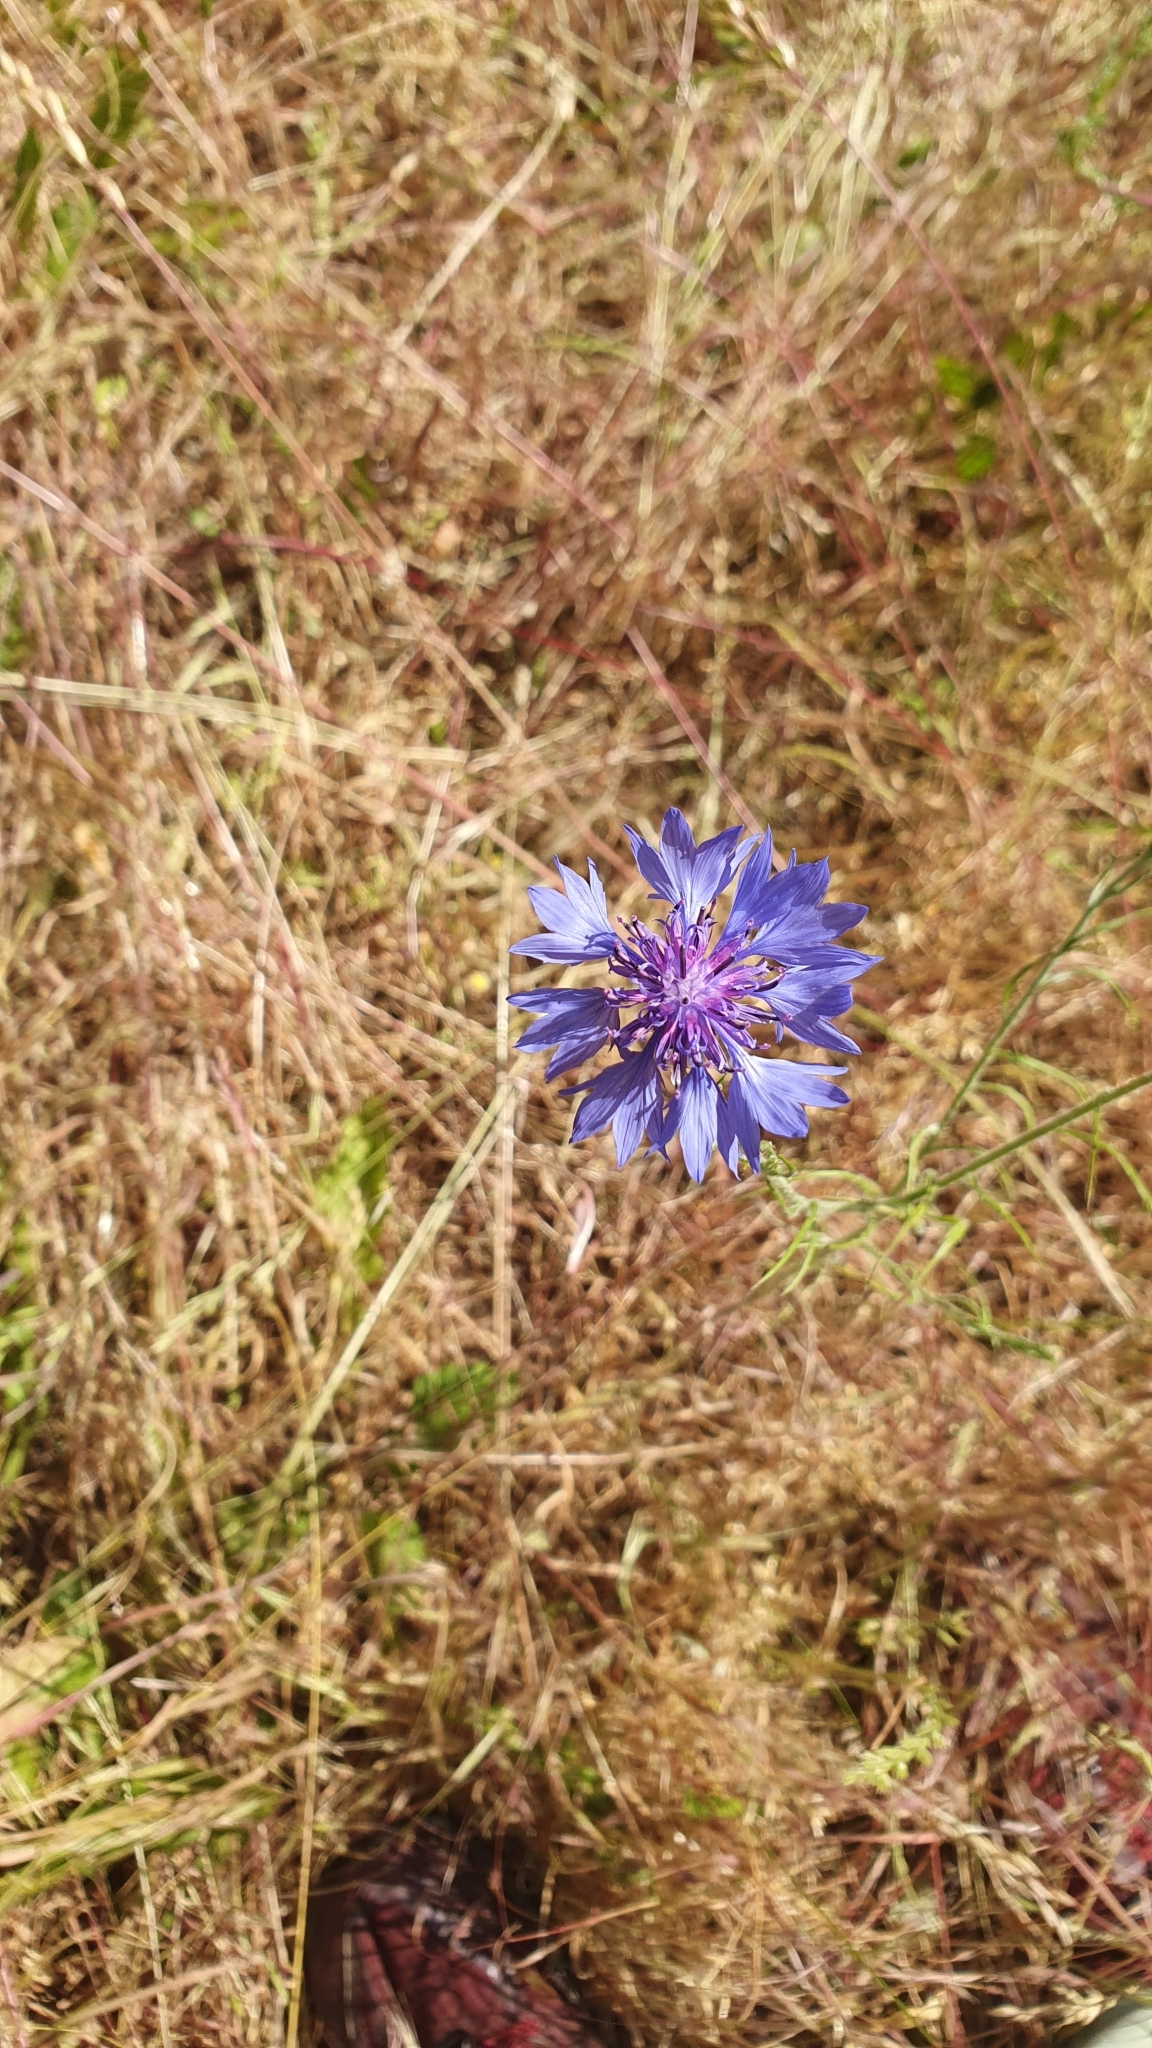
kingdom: Plantae
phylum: Tracheophyta
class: Magnoliopsida
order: Asterales
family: Asteraceae
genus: Centaurea
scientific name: Centaurea cyanus
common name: Cornflower
